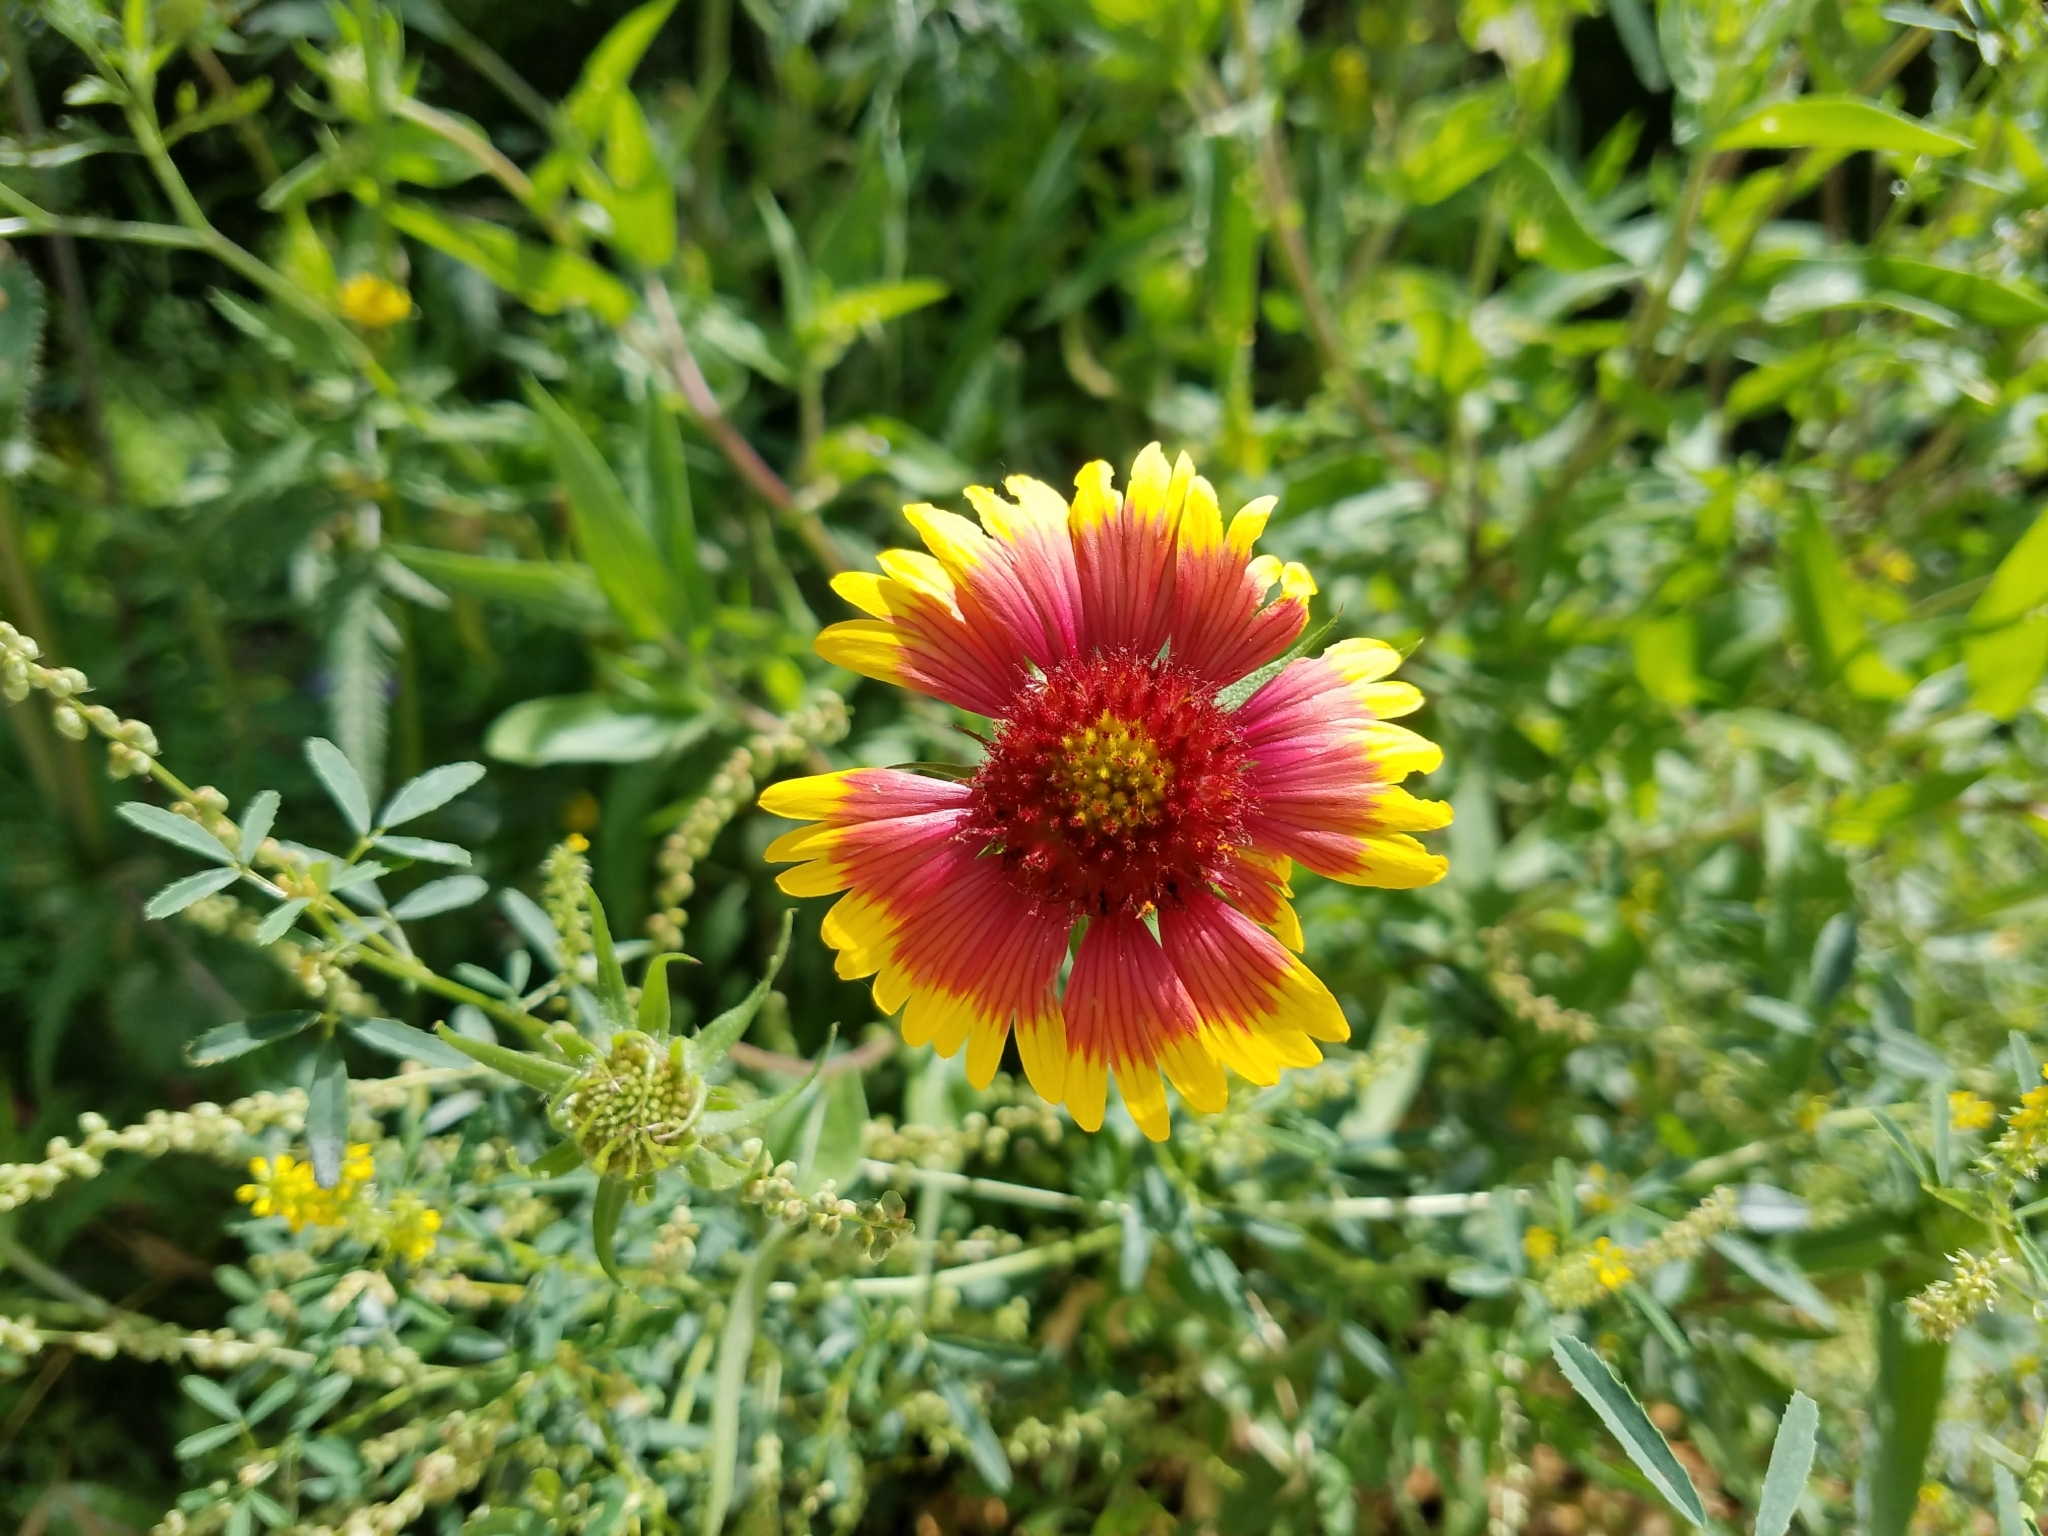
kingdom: Plantae
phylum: Tracheophyta
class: Magnoliopsida
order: Asterales
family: Asteraceae
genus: Gaillardia
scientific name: Gaillardia pulchella
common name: Firewheel
